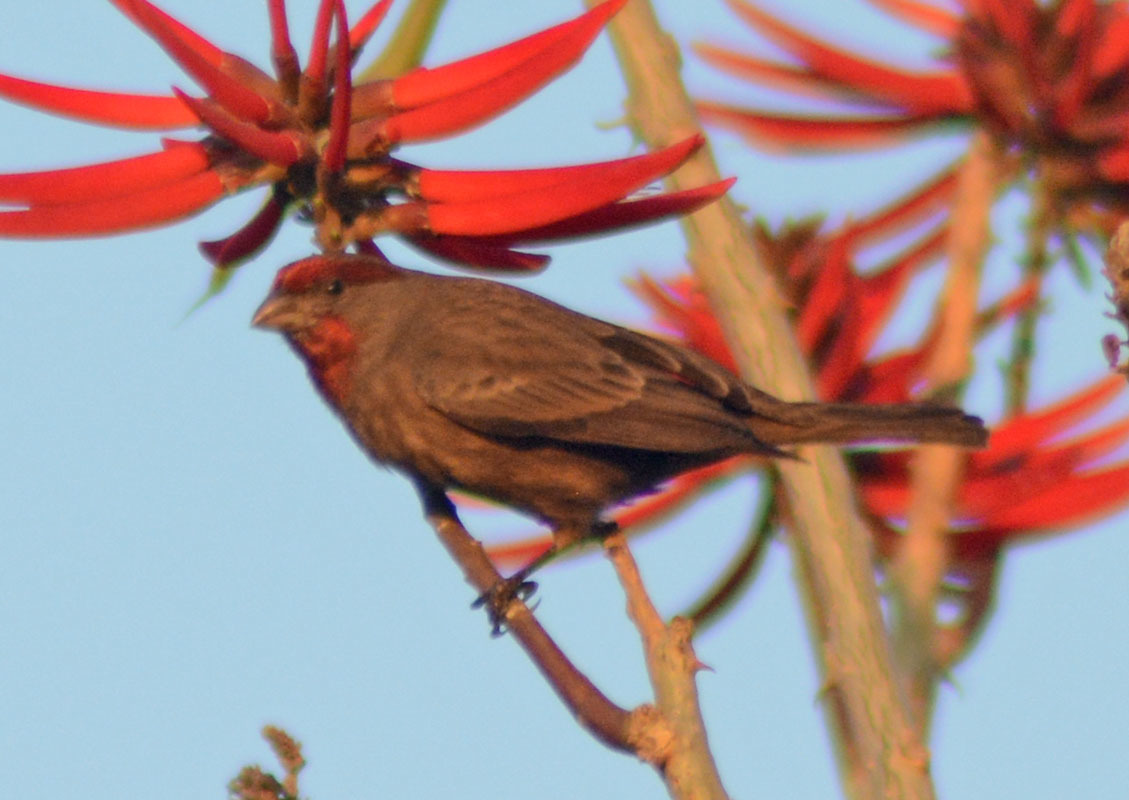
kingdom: Animalia
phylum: Chordata
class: Aves
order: Passeriformes
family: Fringillidae
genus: Haemorhous
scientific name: Haemorhous mexicanus
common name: House finch
